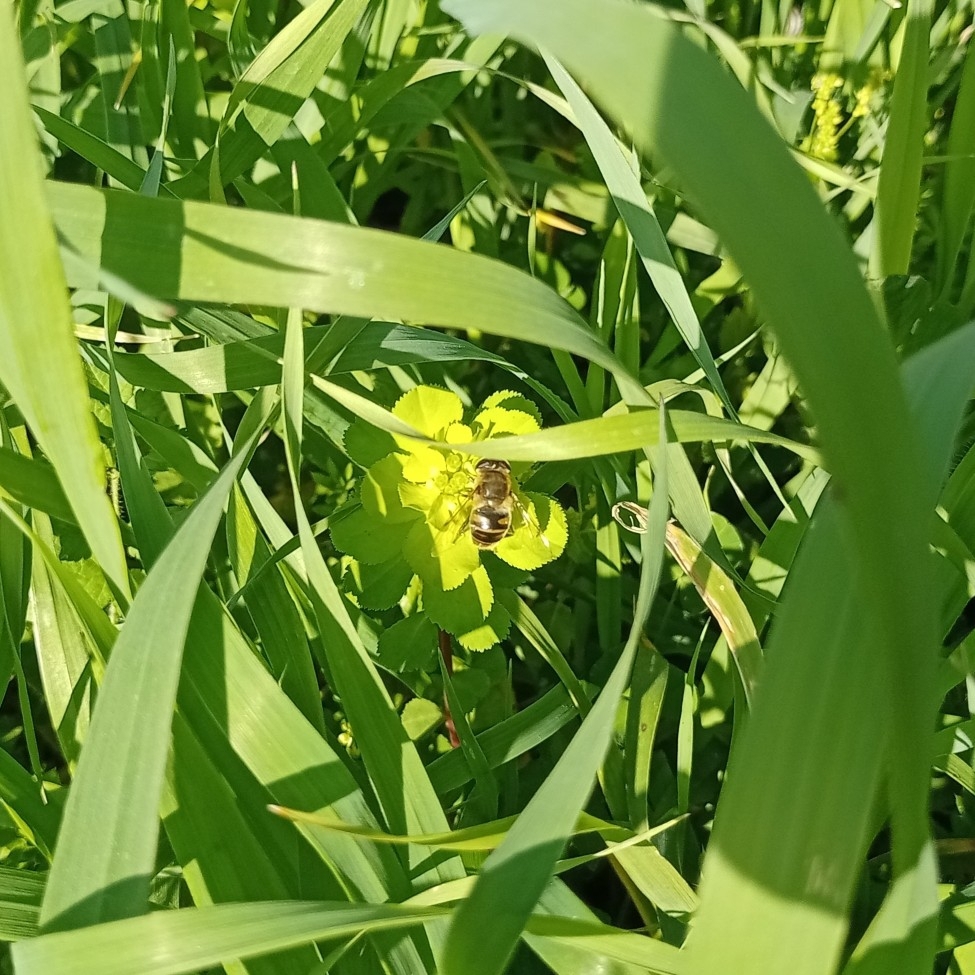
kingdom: Animalia
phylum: Arthropoda
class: Insecta
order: Diptera
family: Syrphidae
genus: Eristalis
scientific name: Eristalis tenax
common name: Drone fly
